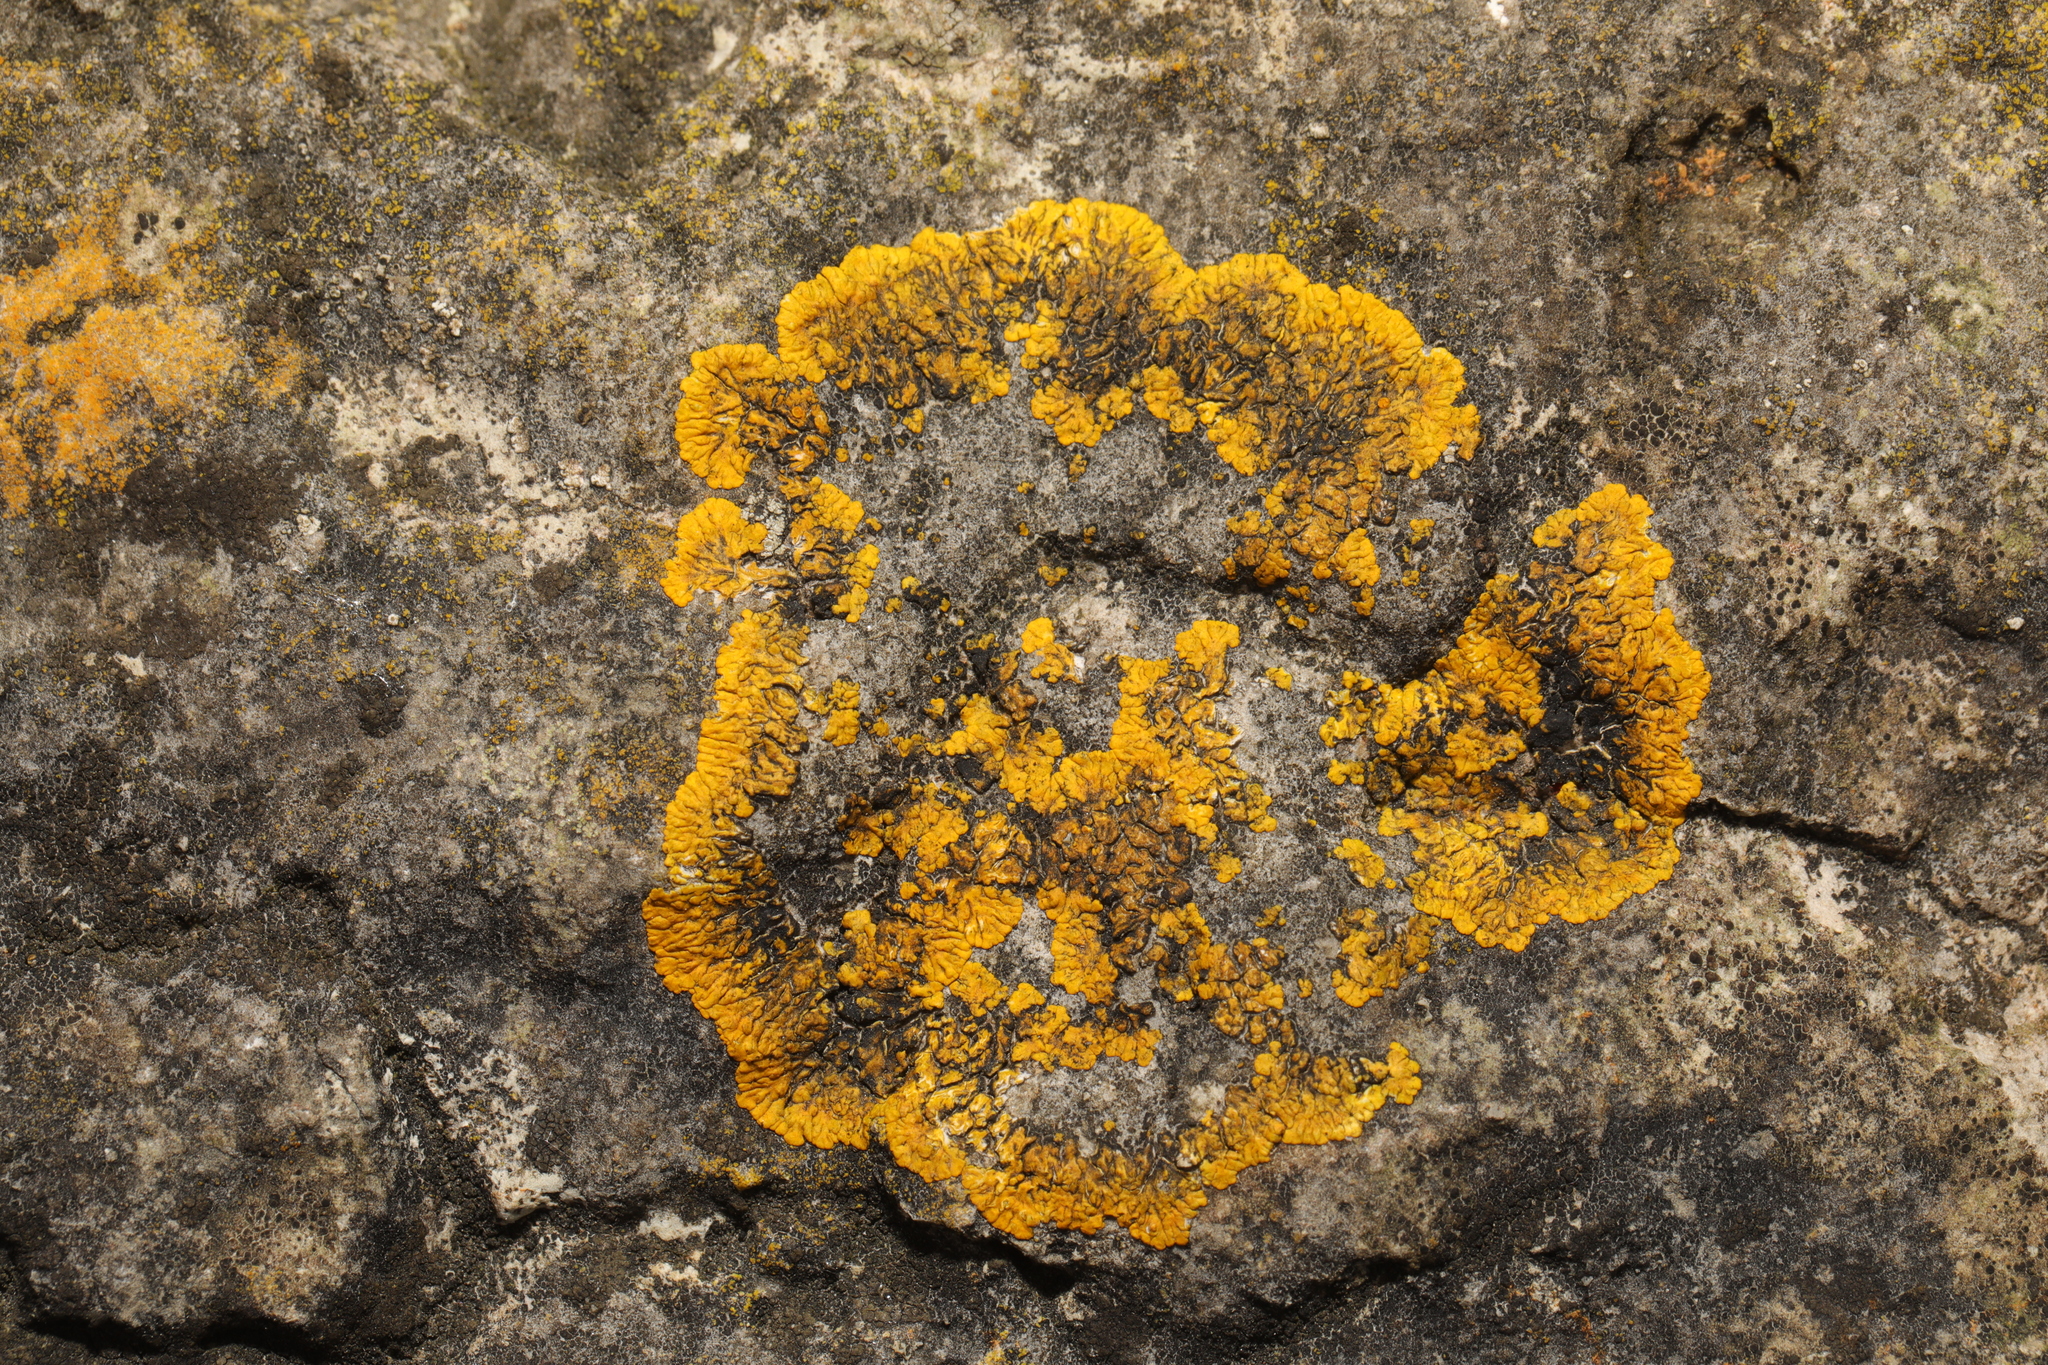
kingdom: Fungi
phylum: Ascomycota
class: Lecanoromycetes
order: Teloschistales
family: Teloschistaceae
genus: Variospora
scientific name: Variospora flavescens
